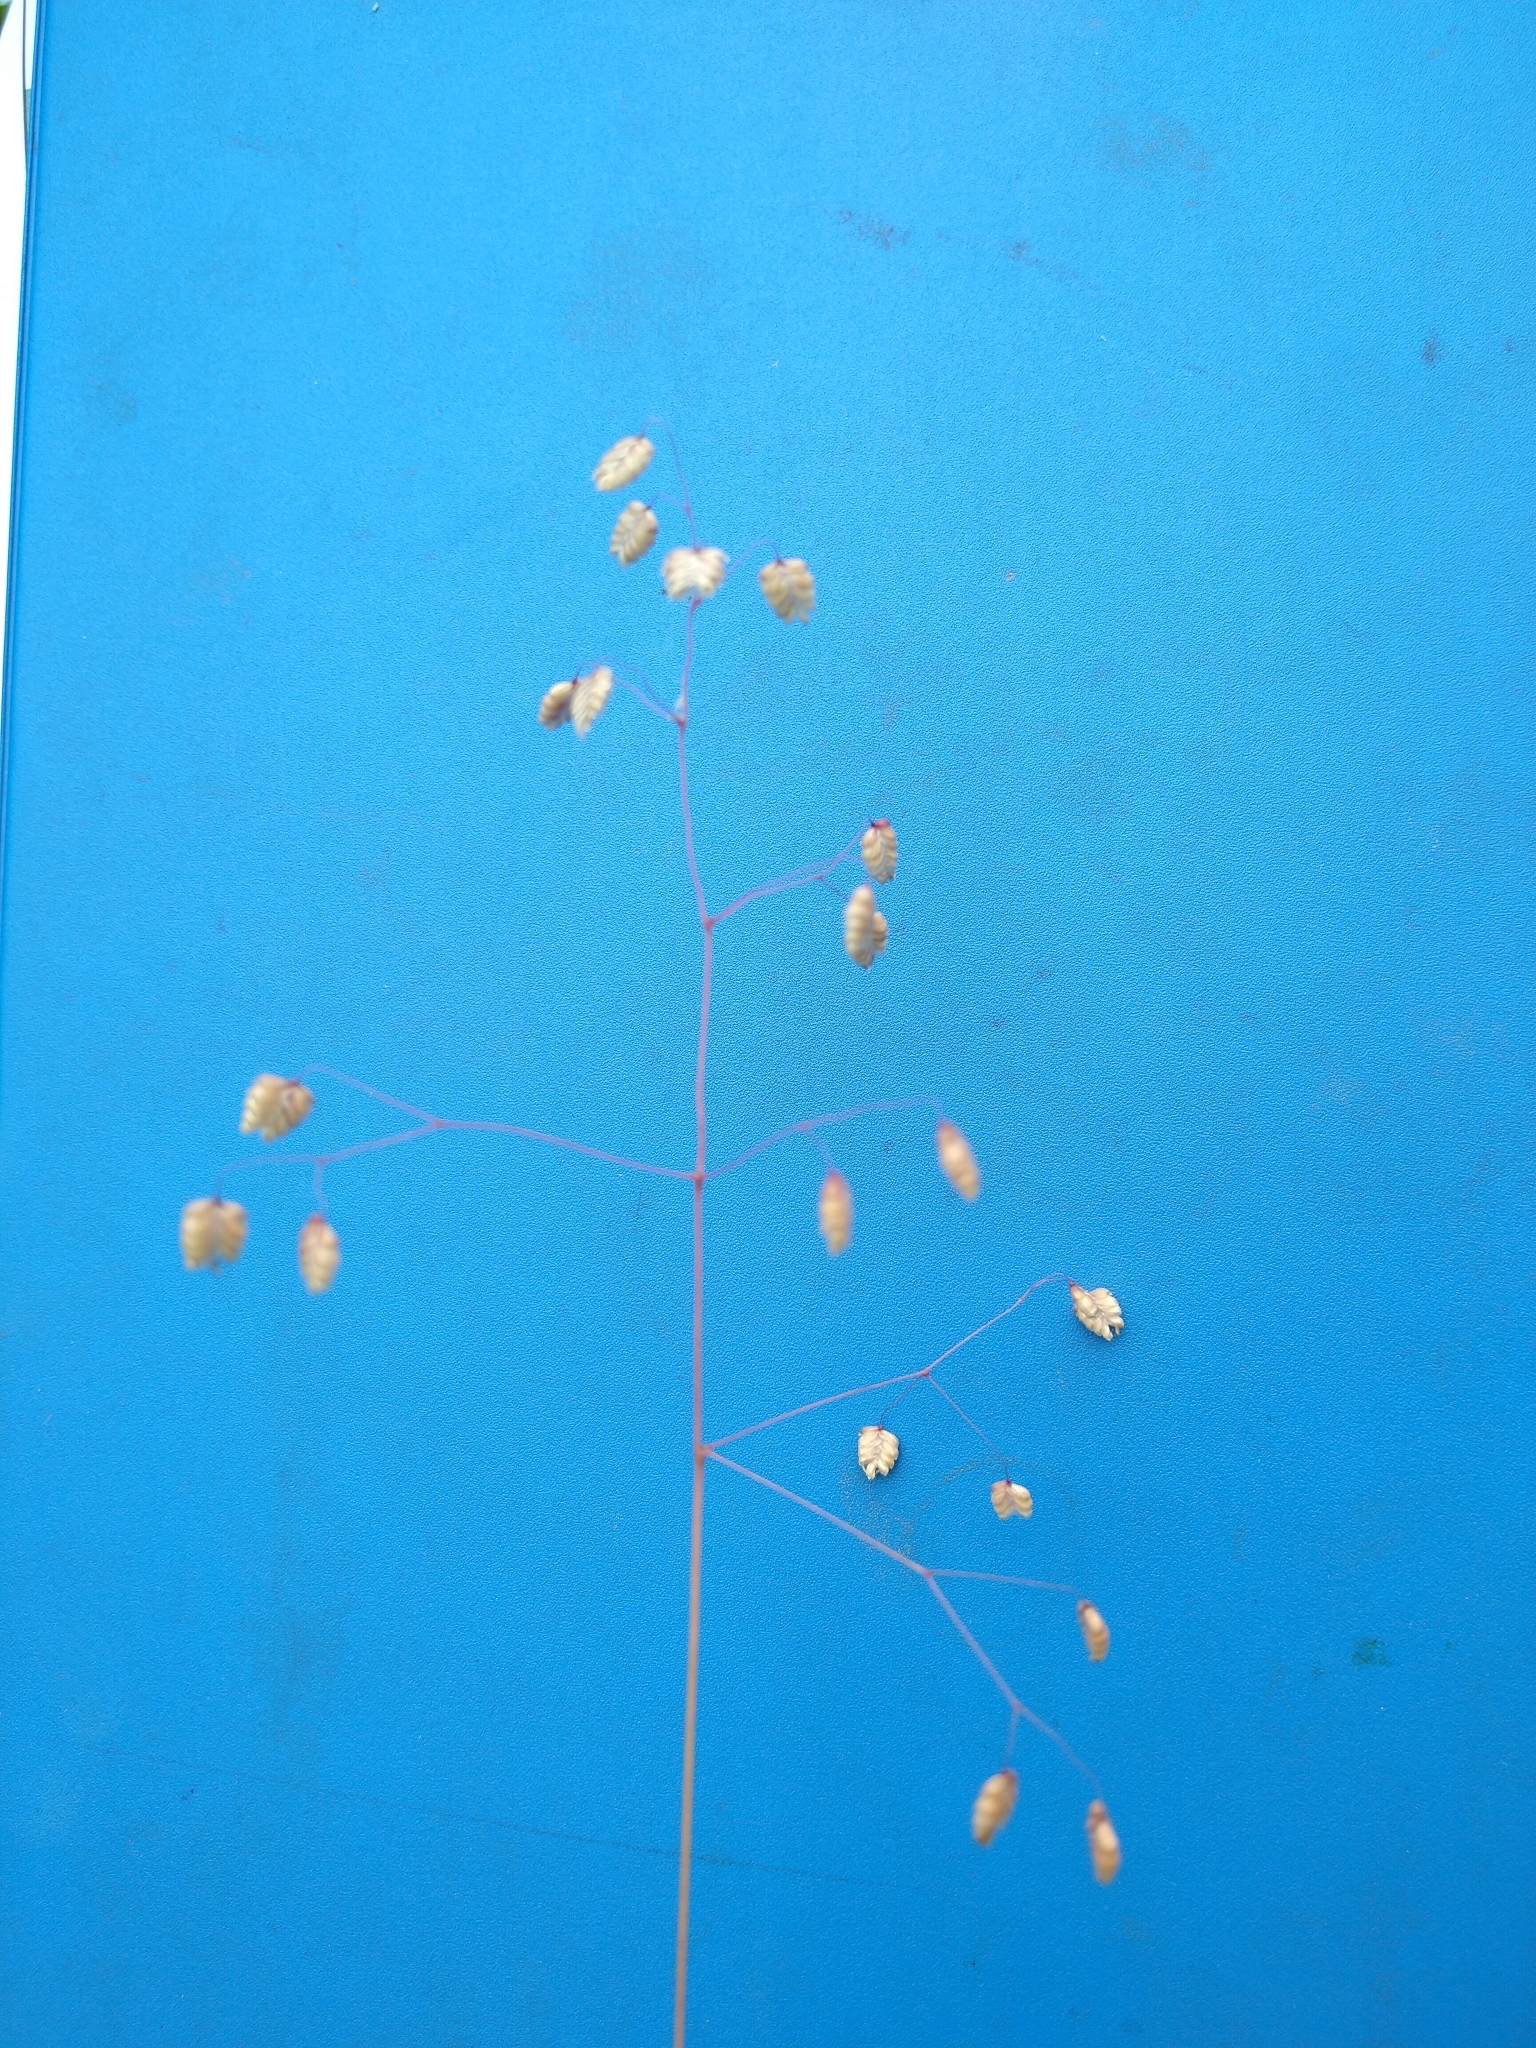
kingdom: Plantae
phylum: Tracheophyta
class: Liliopsida
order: Poales
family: Poaceae
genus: Briza
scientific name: Briza media
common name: Quaking grass
